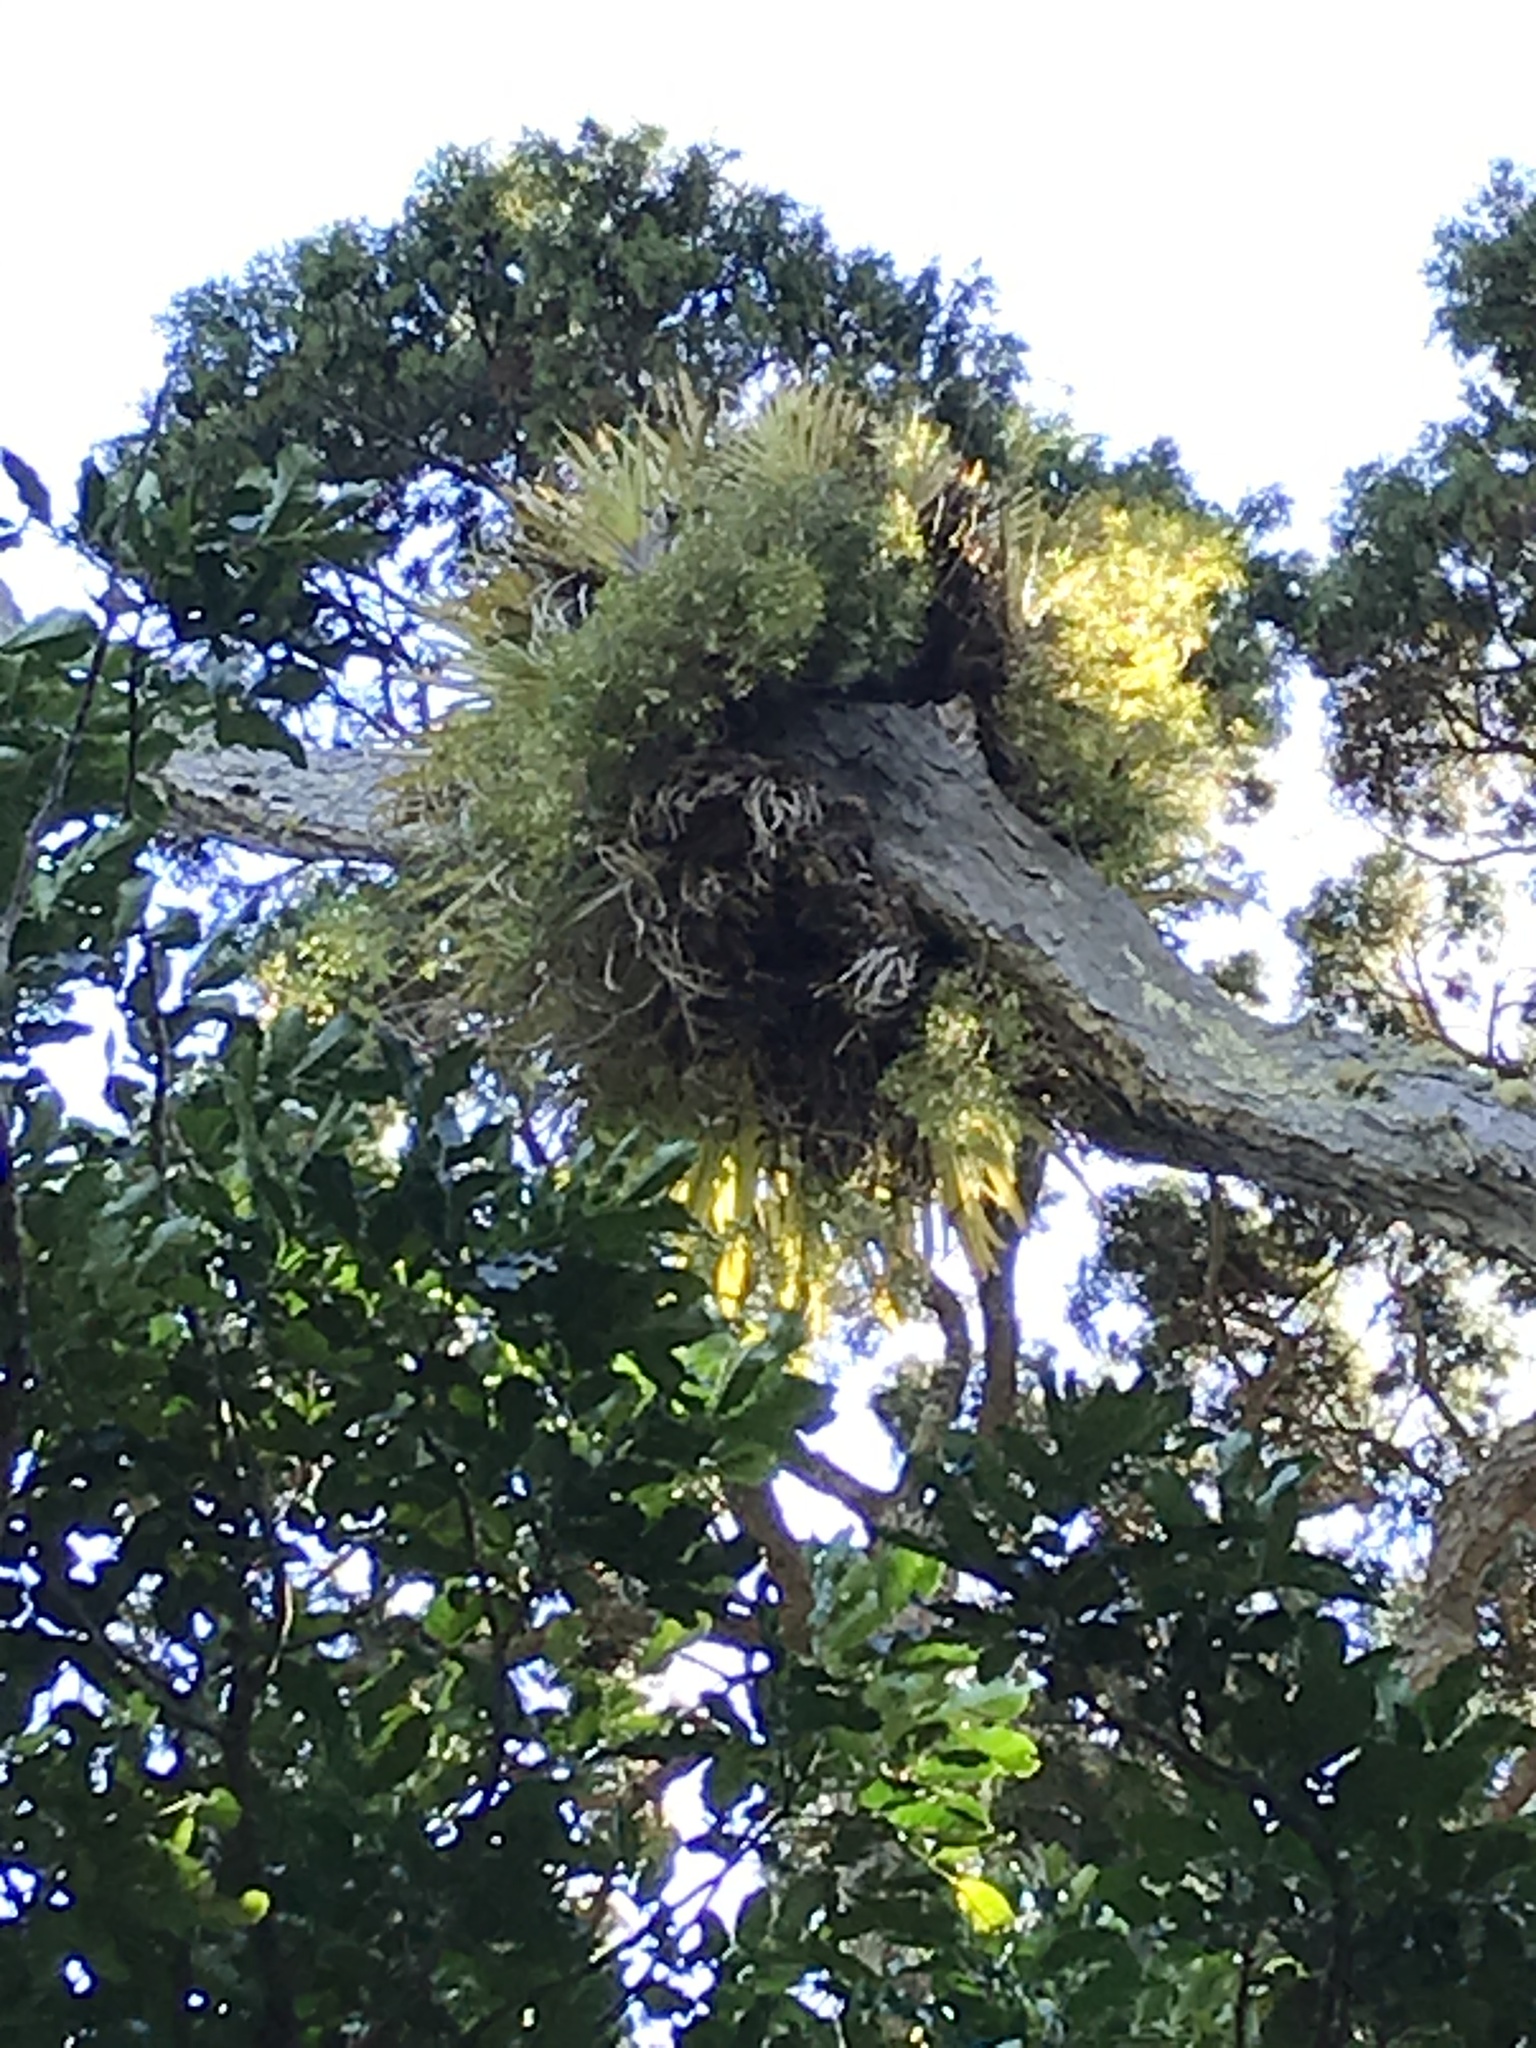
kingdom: Plantae
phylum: Tracheophyta
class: Liliopsida
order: Asparagales
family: Orchidaceae
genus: Dendrobium
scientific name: Dendrobium cunninghamii
